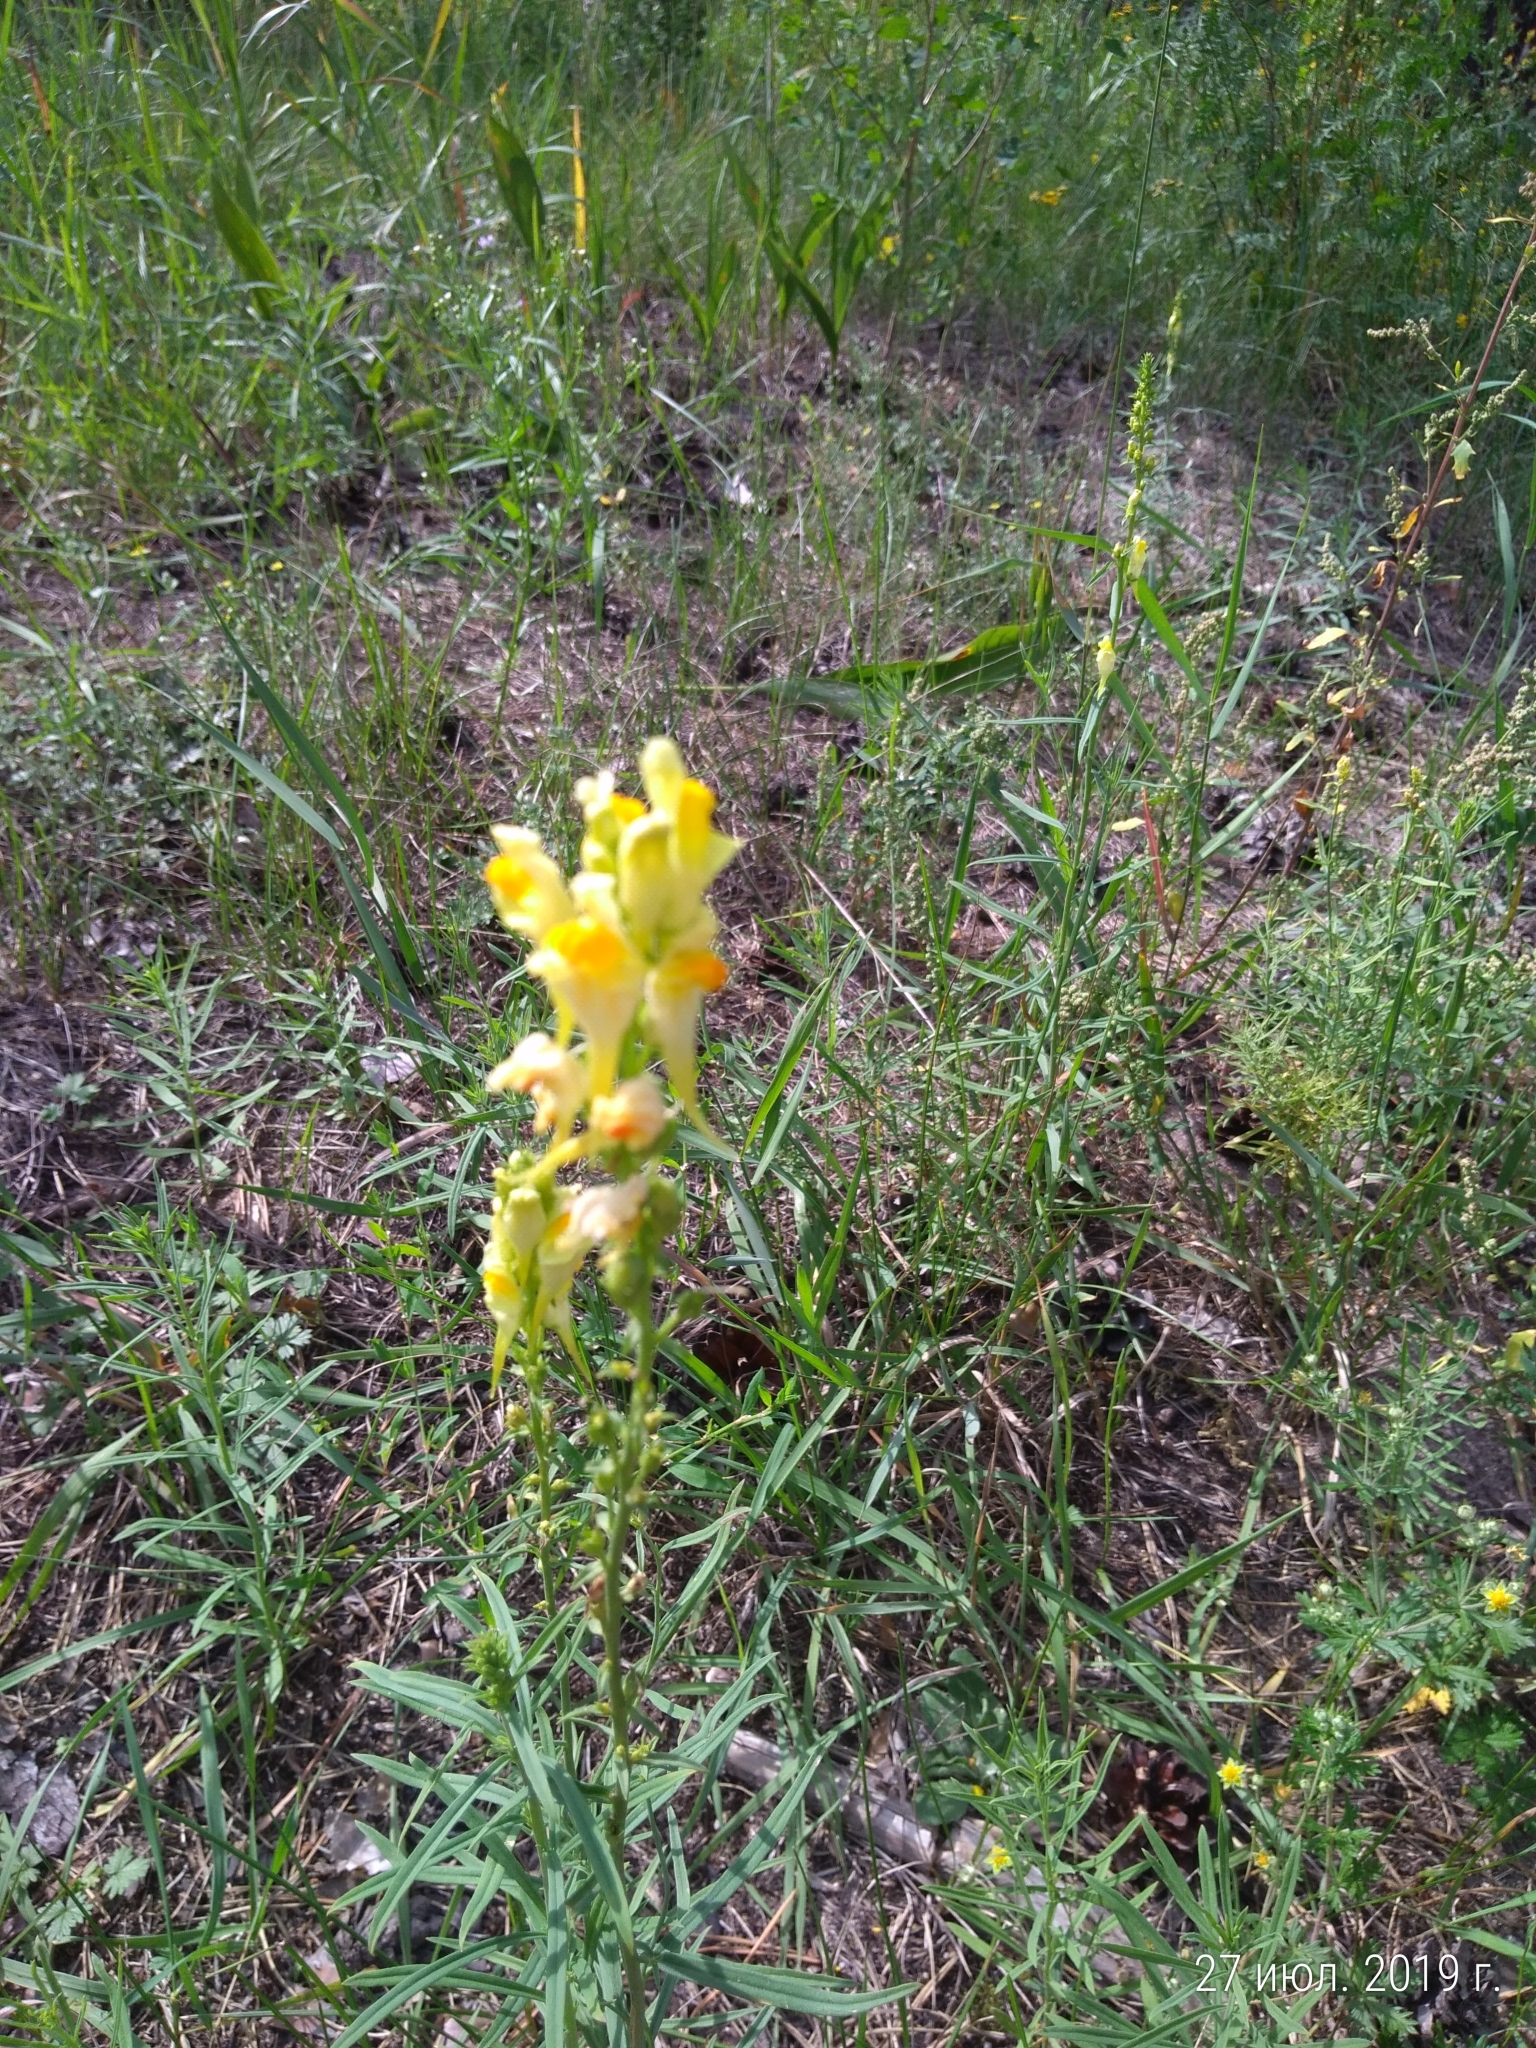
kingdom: Plantae
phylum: Tracheophyta
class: Magnoliopsida
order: Lamiales
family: Plantaginaceae
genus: Linaria
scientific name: Linaria vulgaris
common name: Butter and eggs
